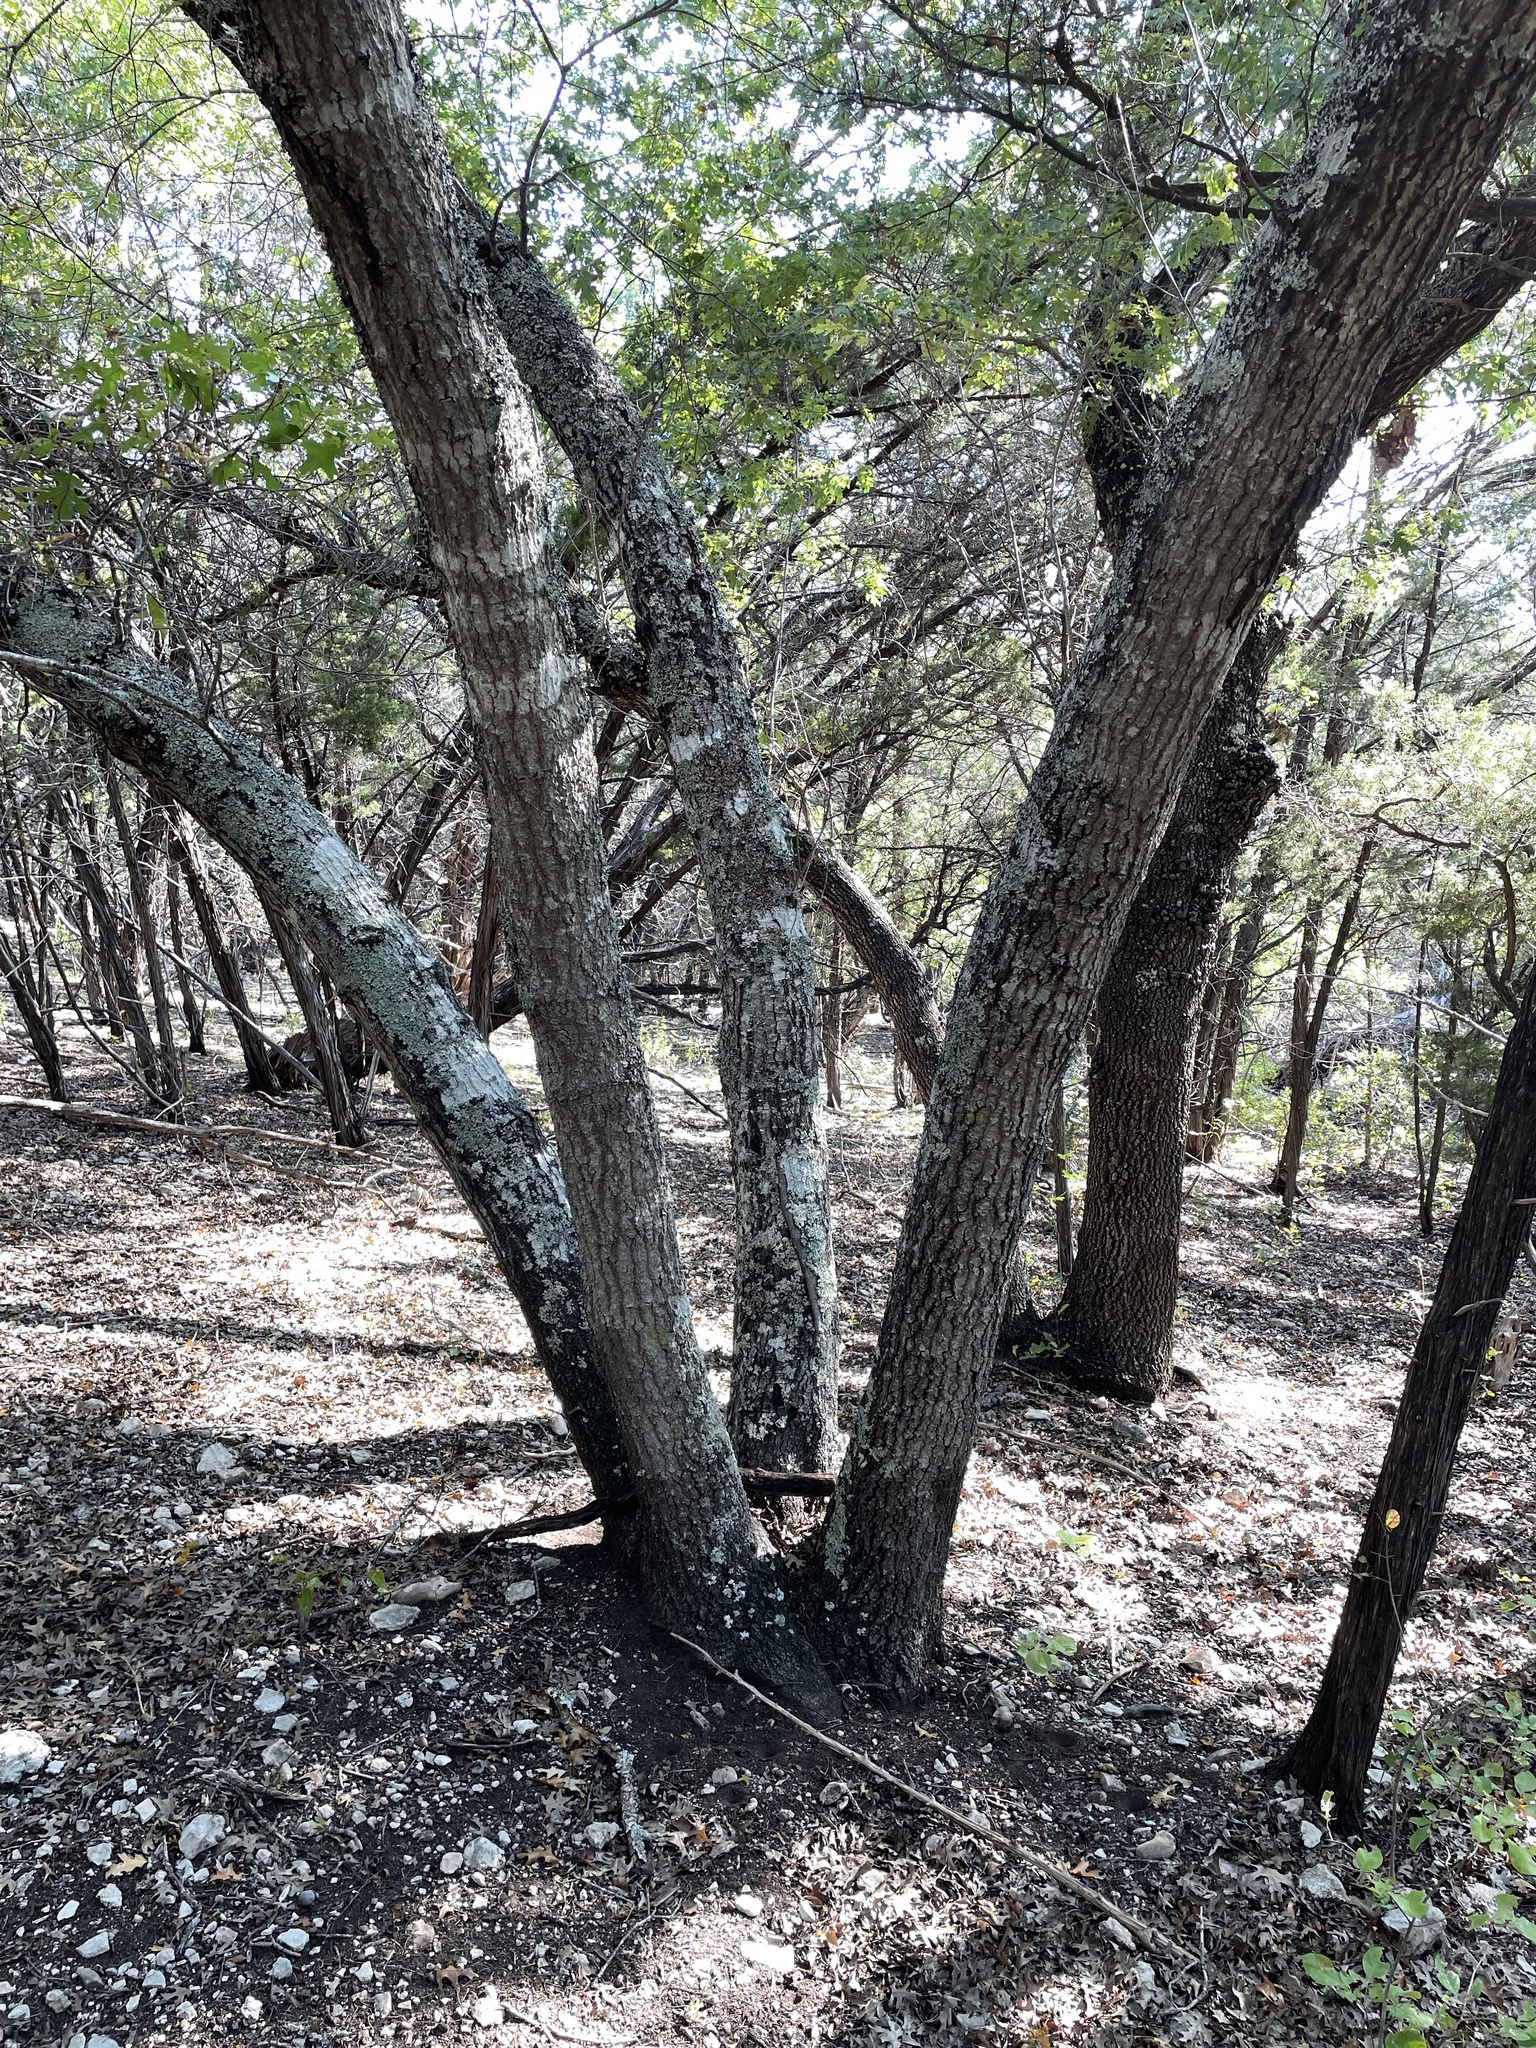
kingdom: Plantae
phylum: Tracheophyta
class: Magnoliopsida
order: Fagales
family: Fagaceae
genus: Quercus
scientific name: Quercus buckleyi
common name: Buckley oak
